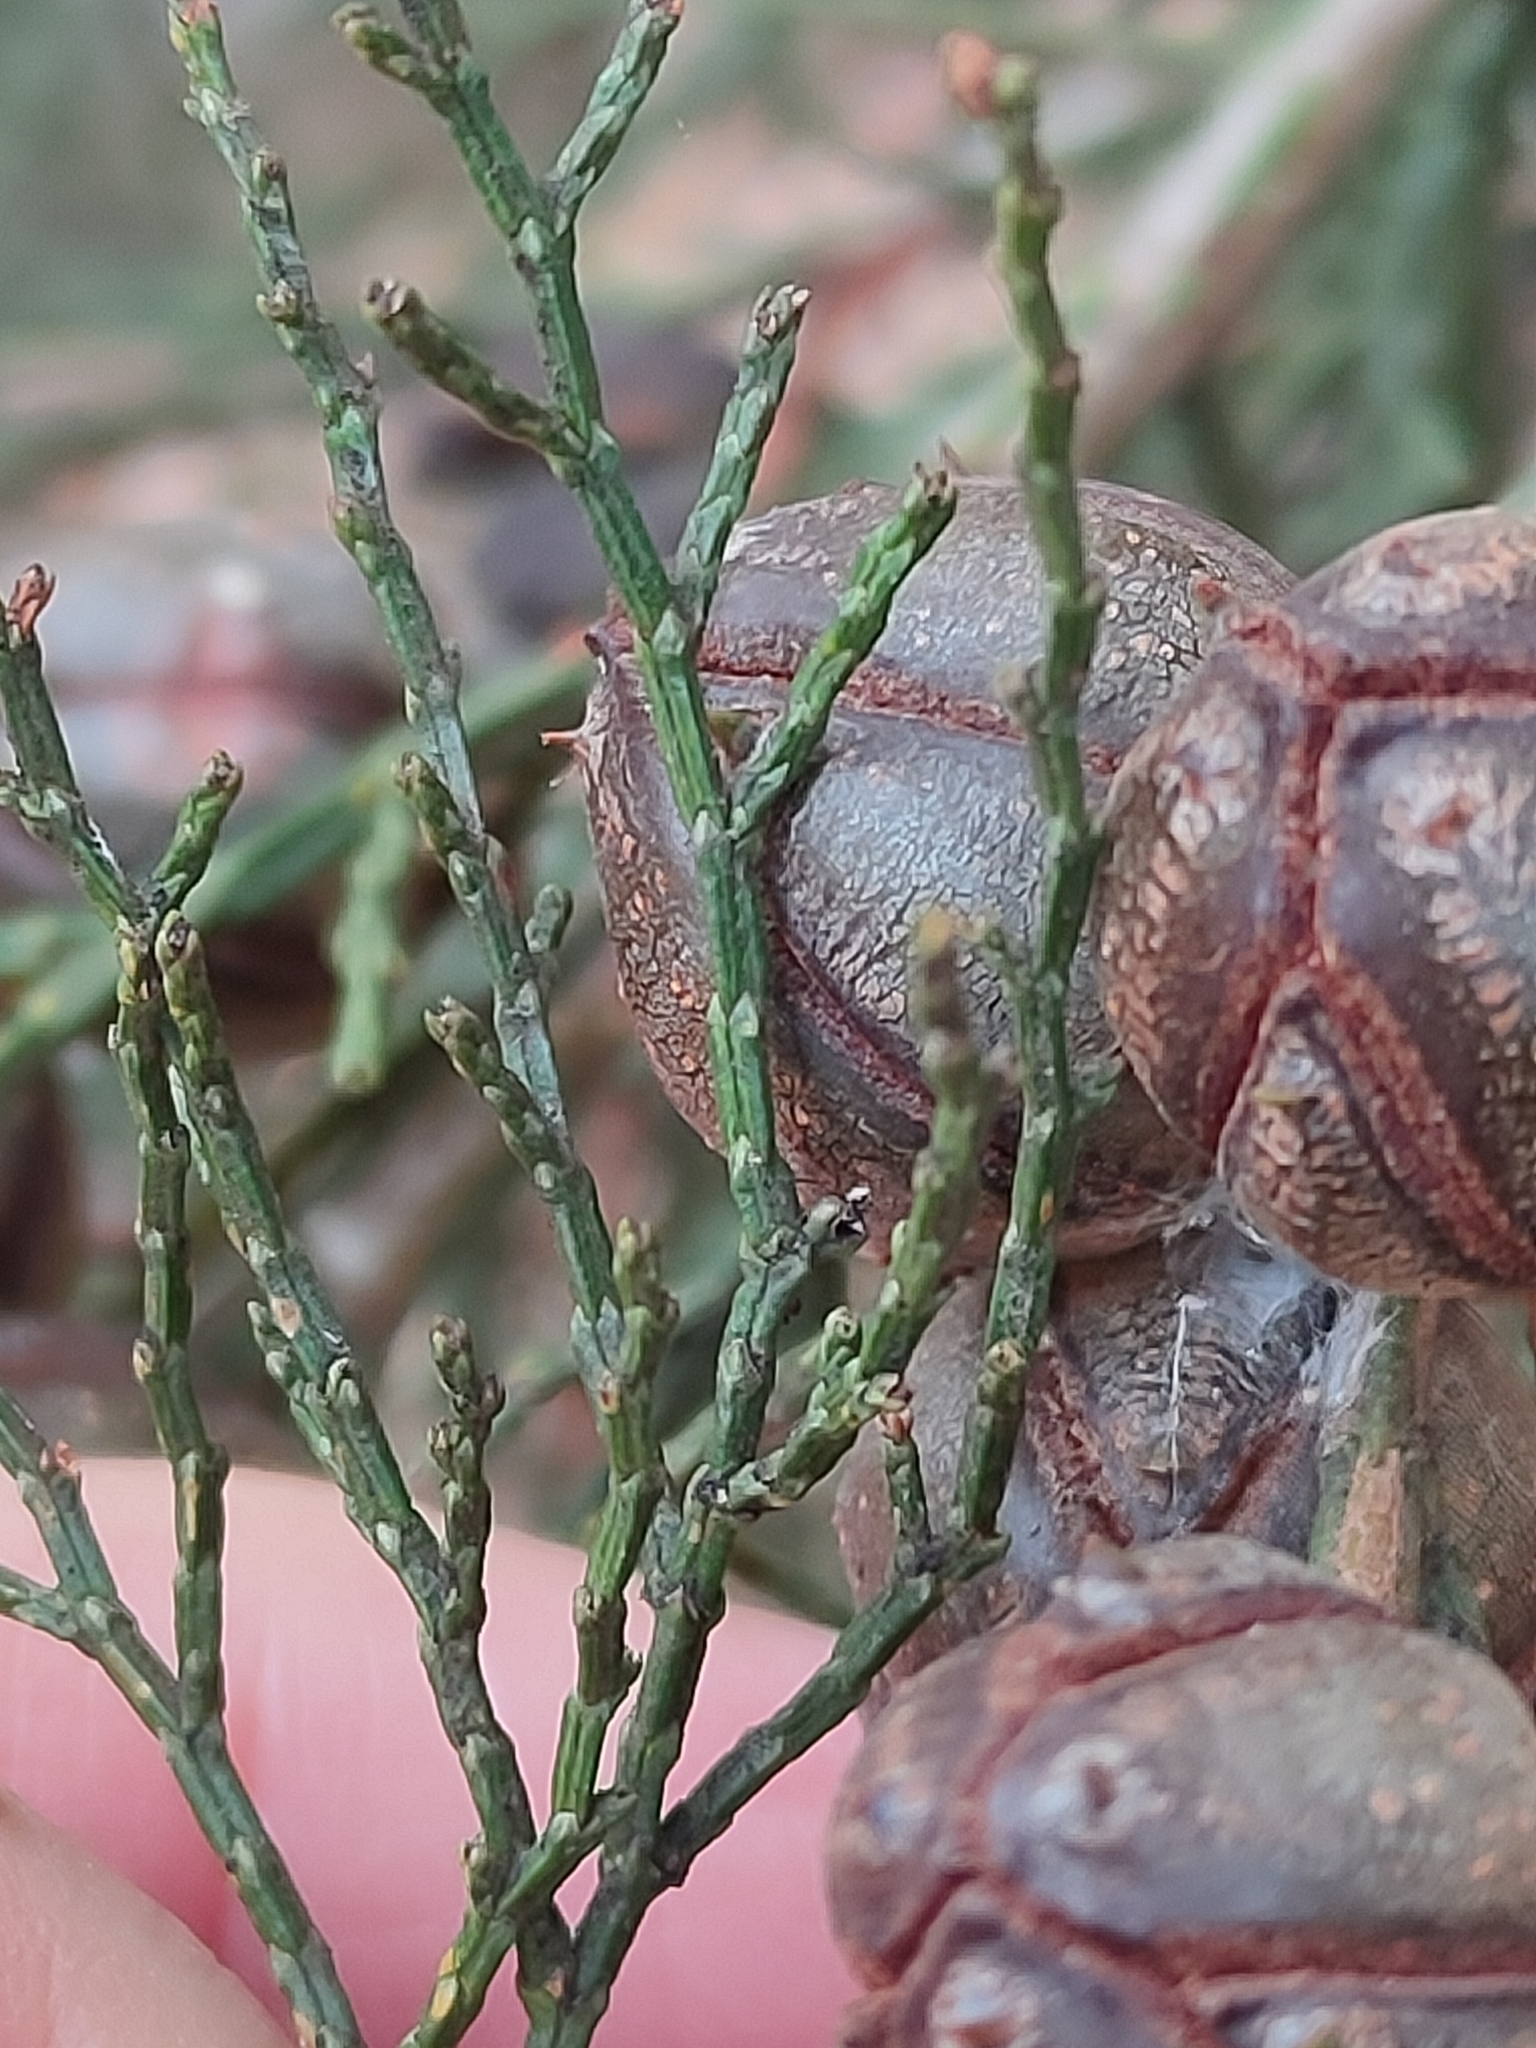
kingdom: Plantae
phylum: Tracheophyta
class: Pinopsida
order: Pinales
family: Cupressaceae
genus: Callitris
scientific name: Callitris endlicheri
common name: Black cypress-pine
